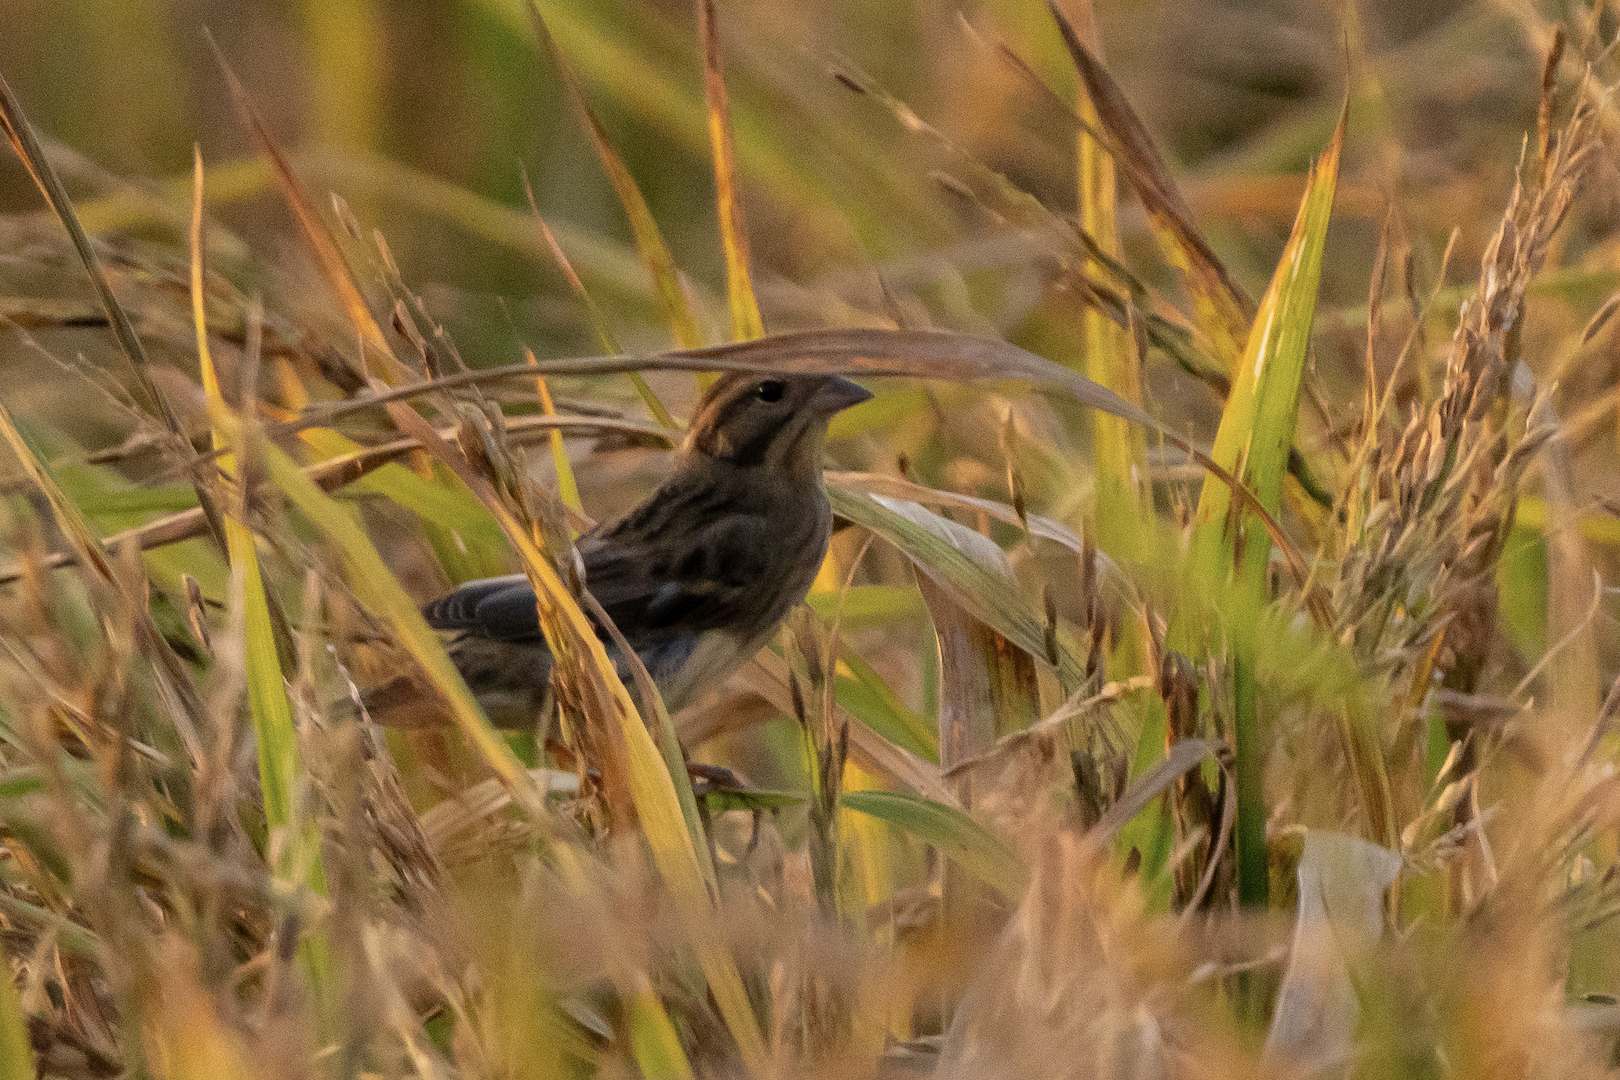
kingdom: Animalia
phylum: Chordata
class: Aves
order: Passeriformes
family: Emberizidae
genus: Emberiza
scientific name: Emberiza aureola
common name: Yellow-breasted bunting
